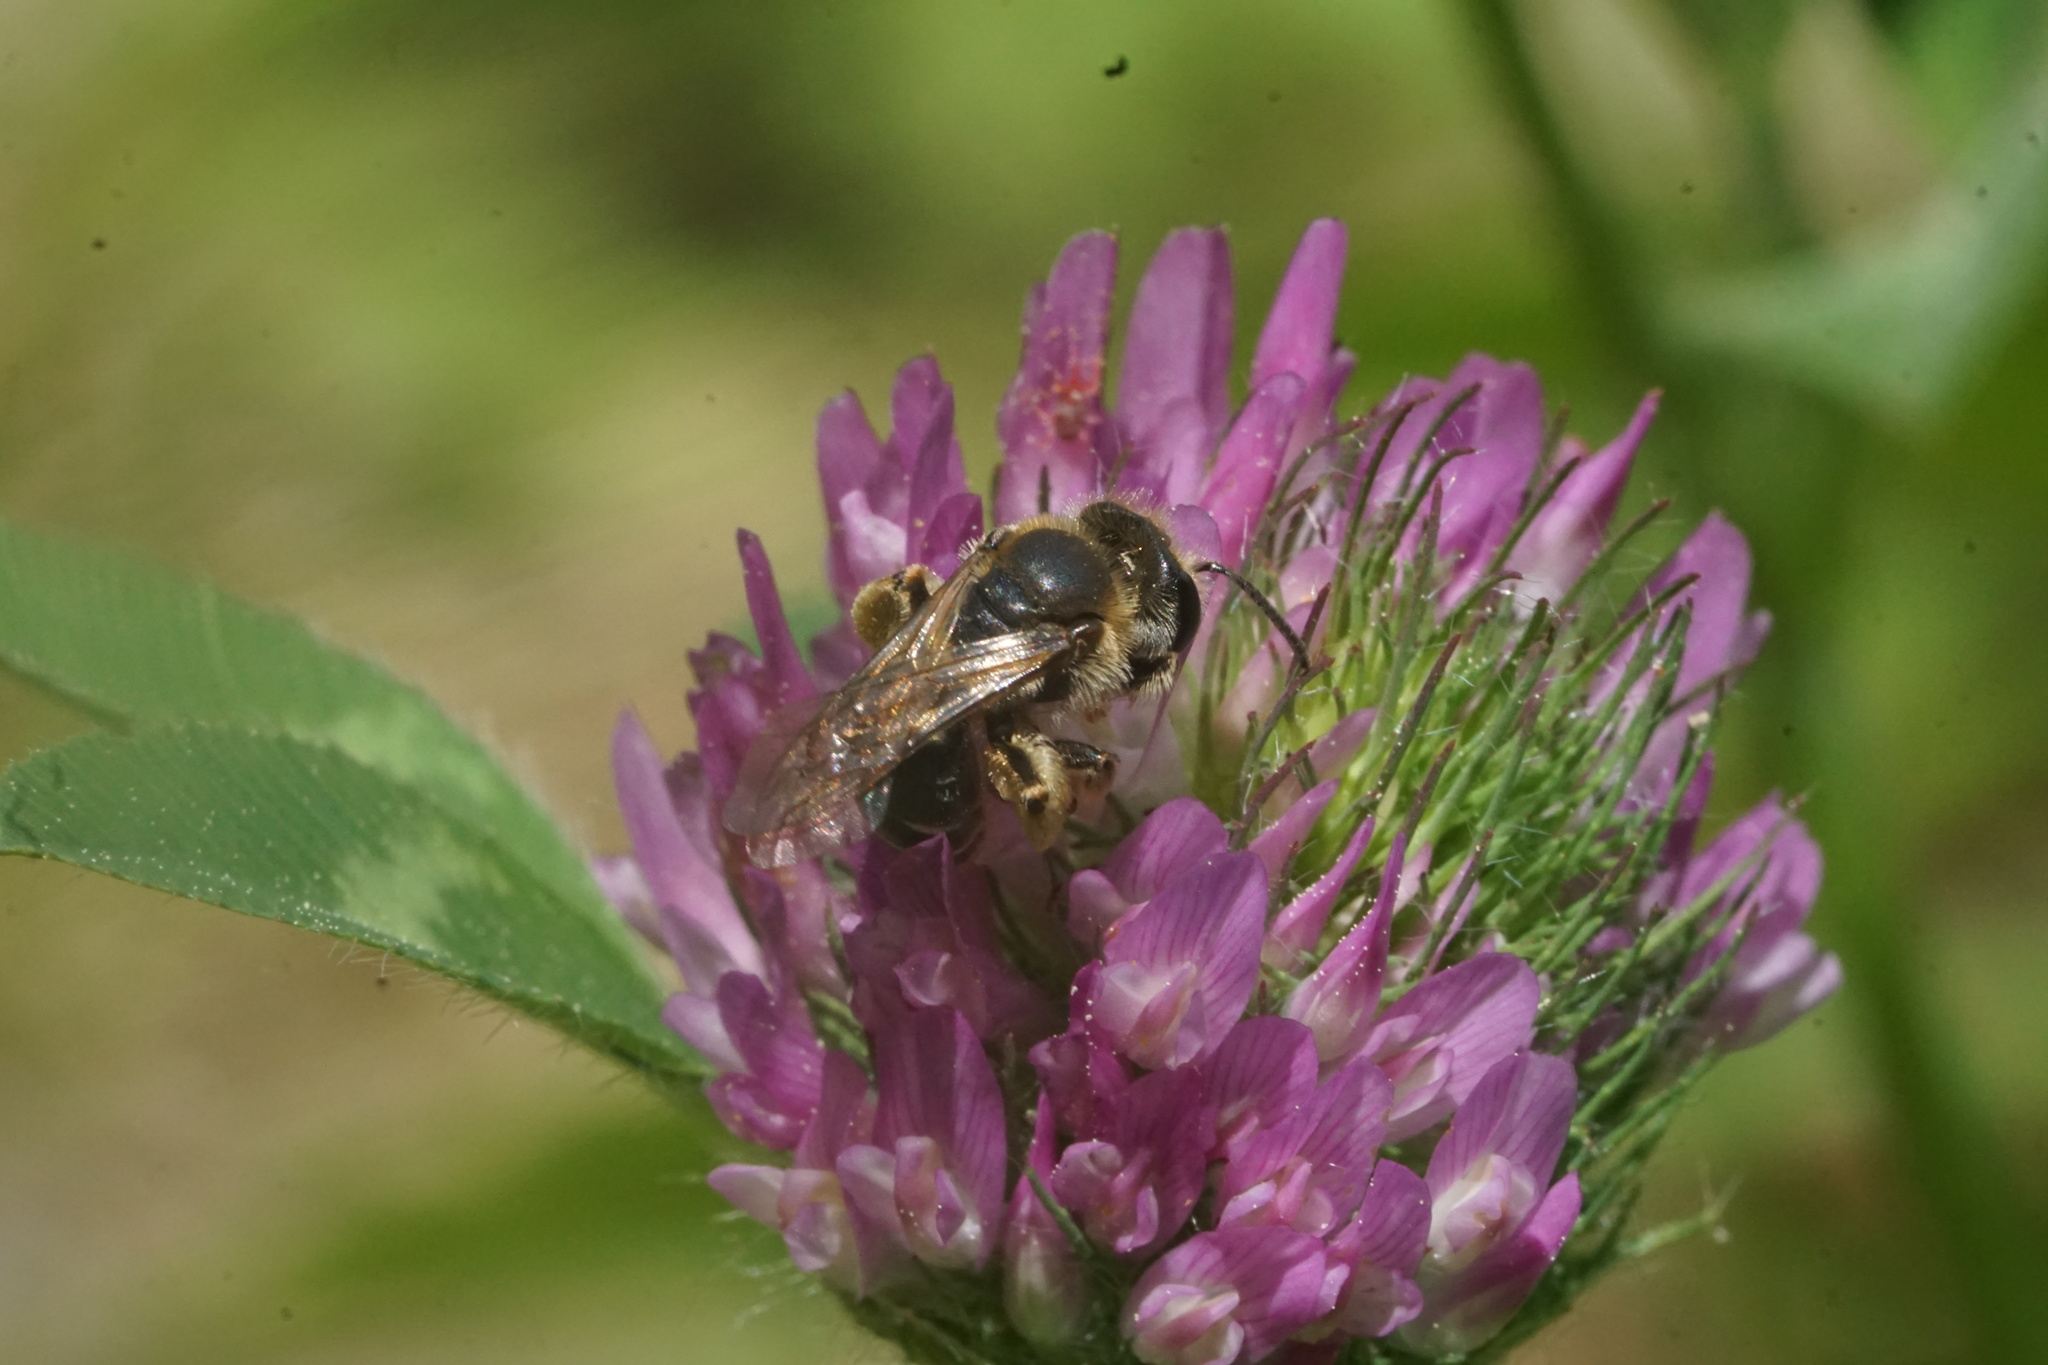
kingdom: Animalia
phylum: Arthropoda
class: Insecta
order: Hymenoptera
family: Andrenidae
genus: Andrena
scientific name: Andrena wilkella
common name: Wilke's mining bee
